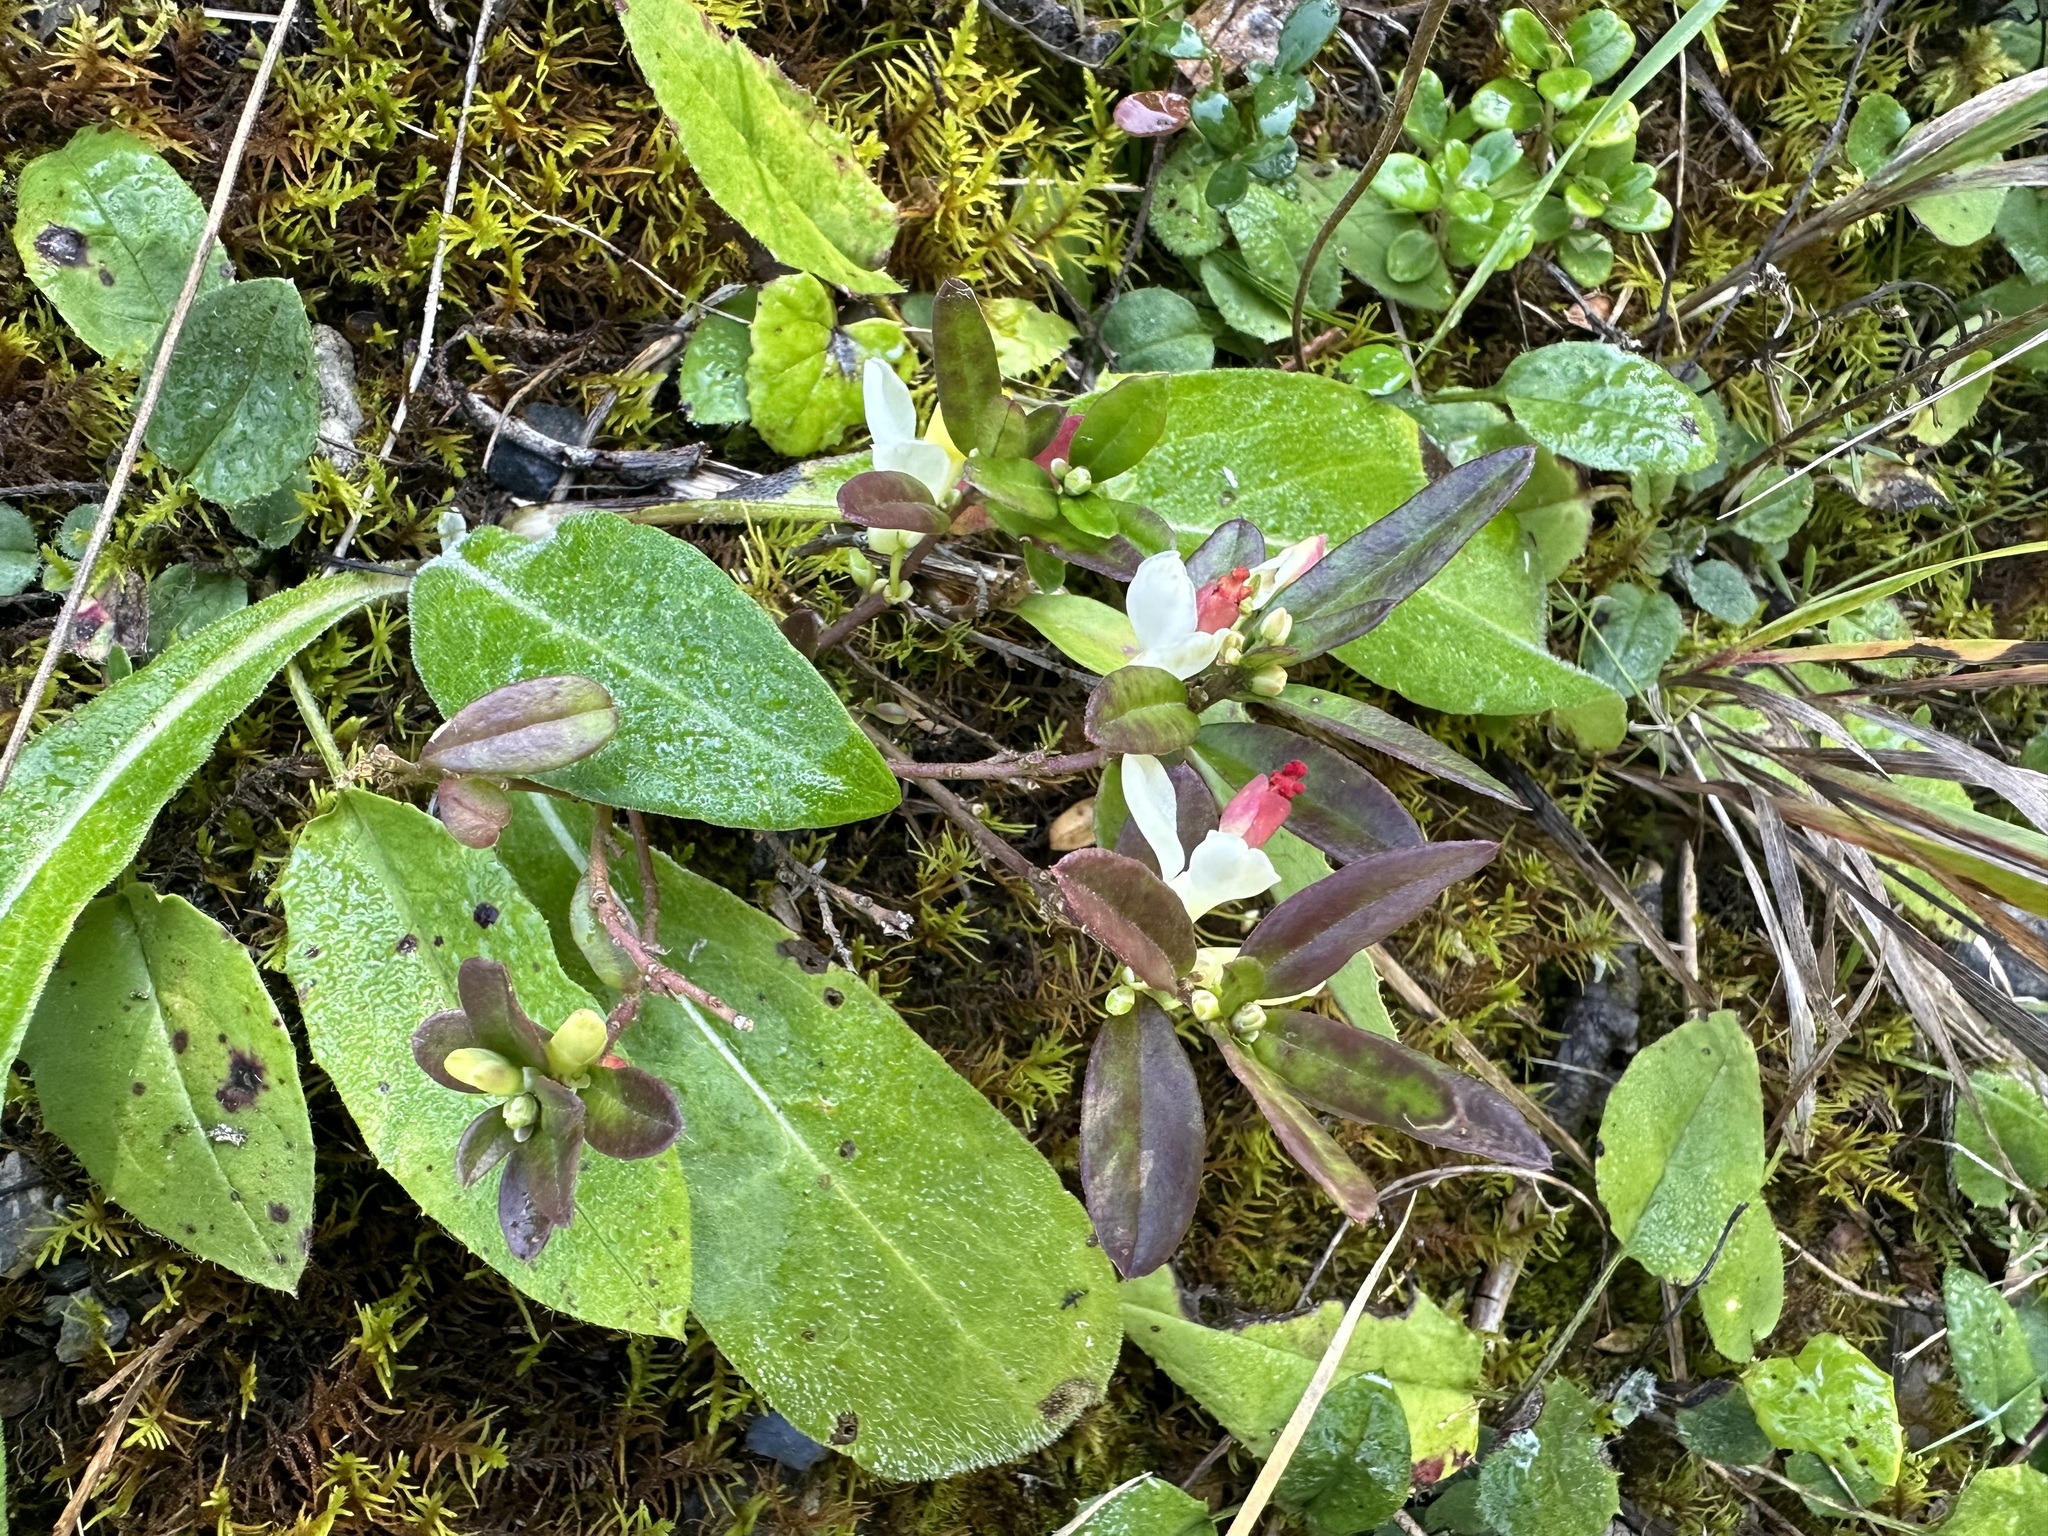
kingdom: Plantae
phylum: Tracheophyta
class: Magnoliopsida
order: Fabales
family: Polygalaceae
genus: Polygaloides
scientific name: Polygaloides chamaebuxus
